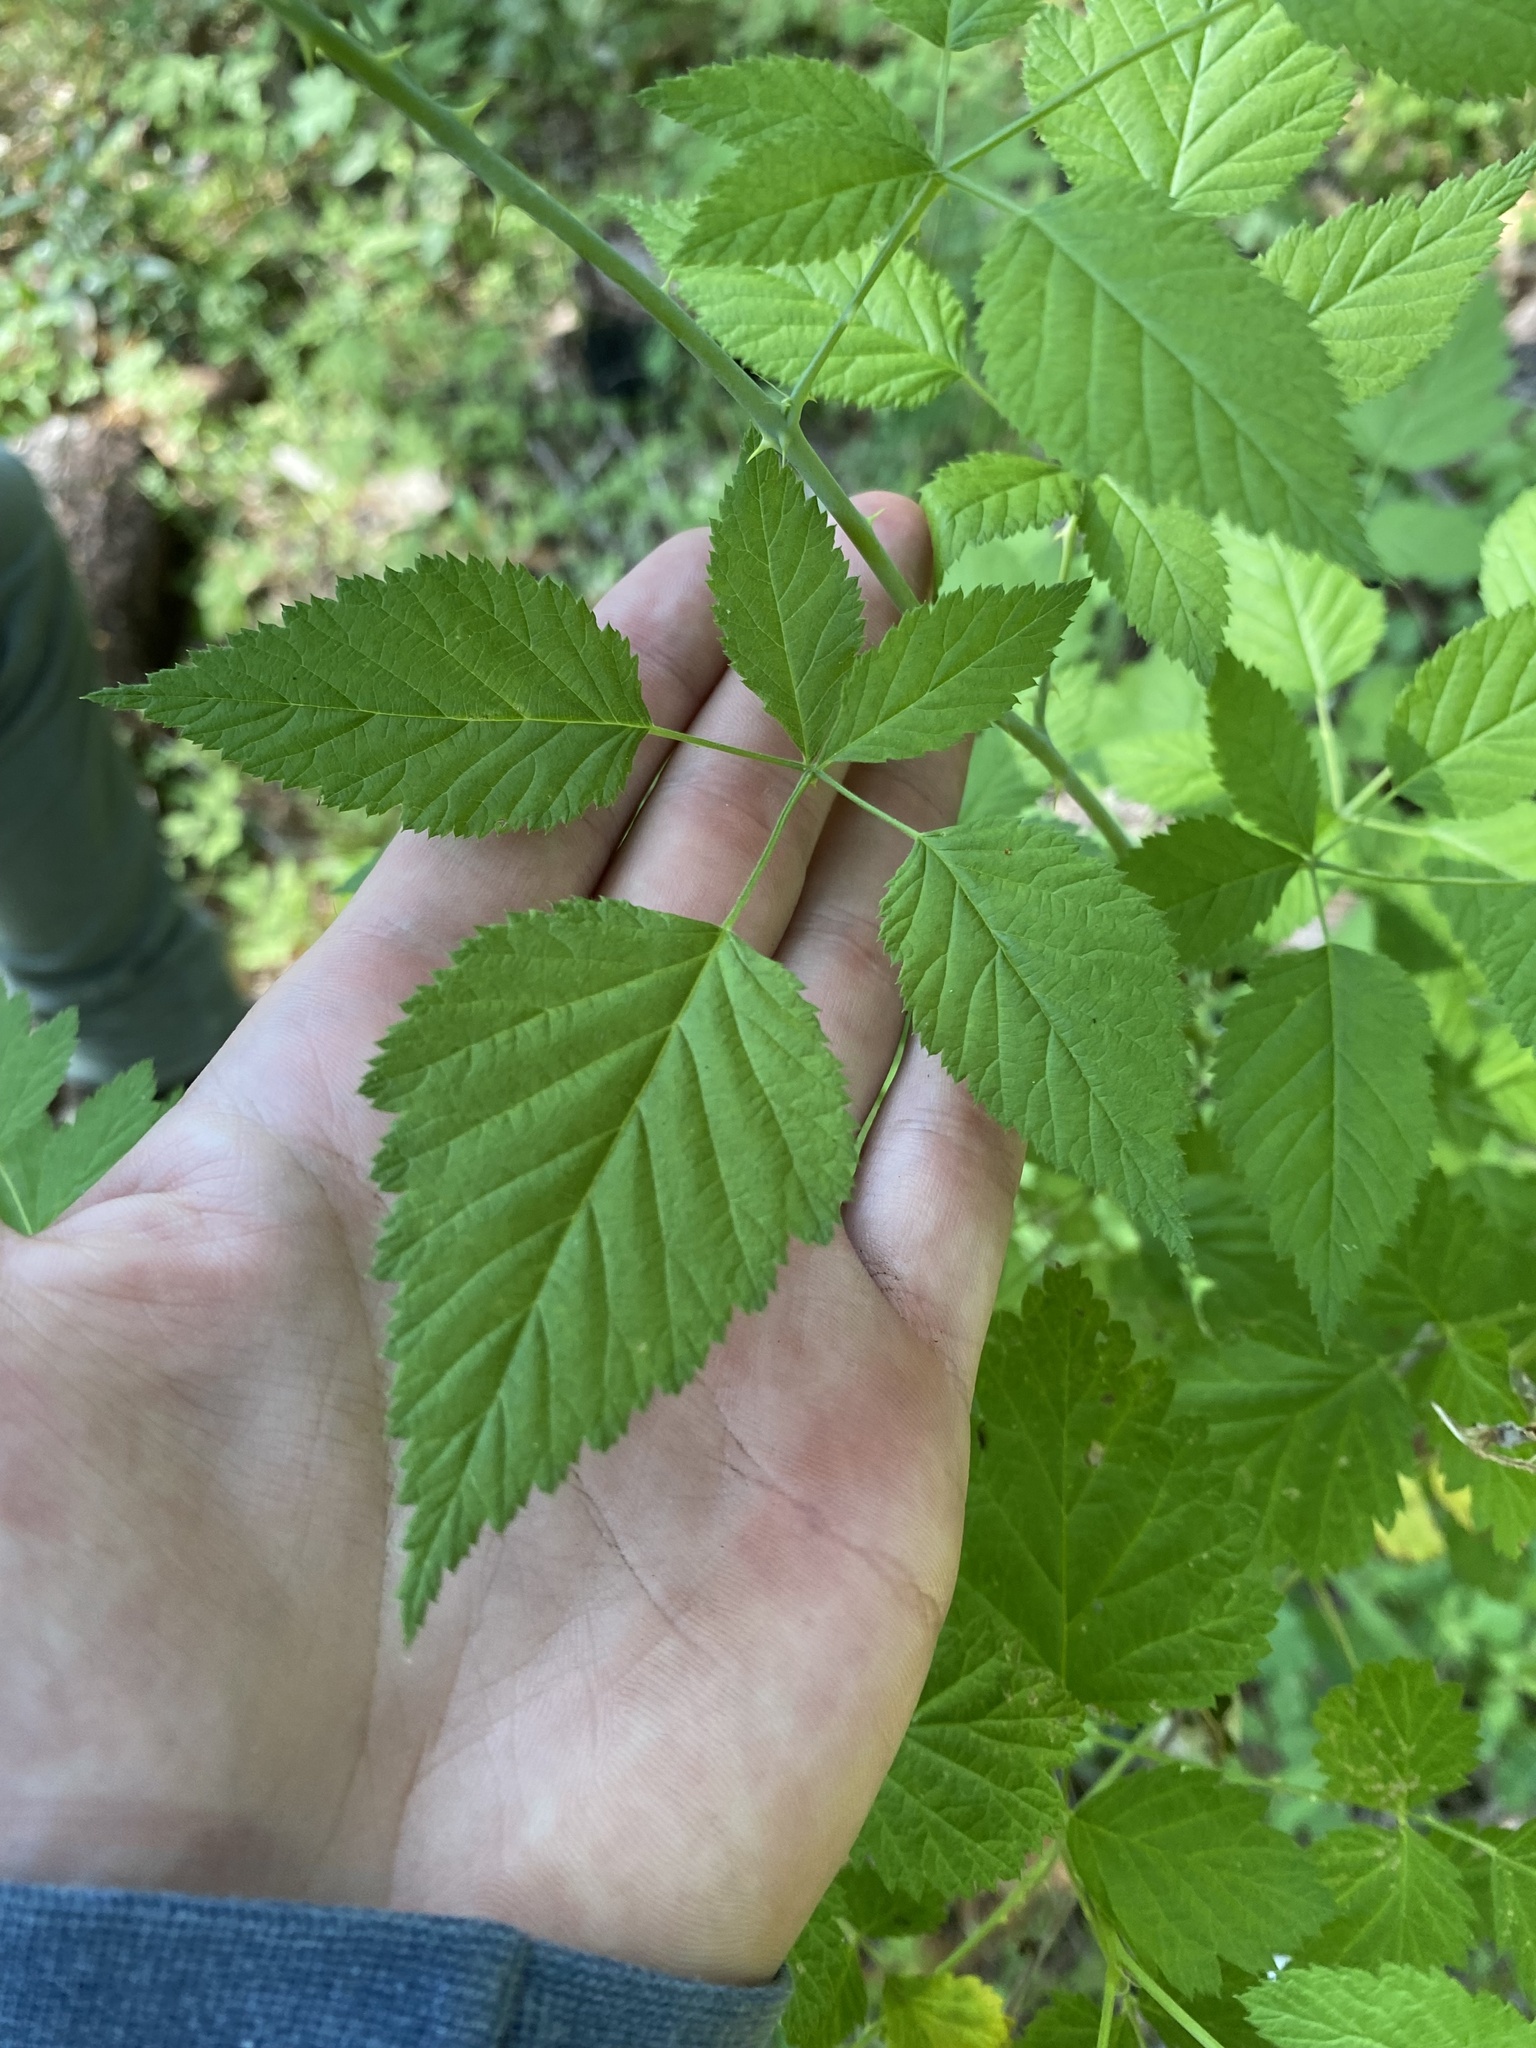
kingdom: Plantae
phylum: Tracheophyta
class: Magnoliopsida
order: Rosales
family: Rosaceae
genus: Rubus
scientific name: Rubus leucodermis
